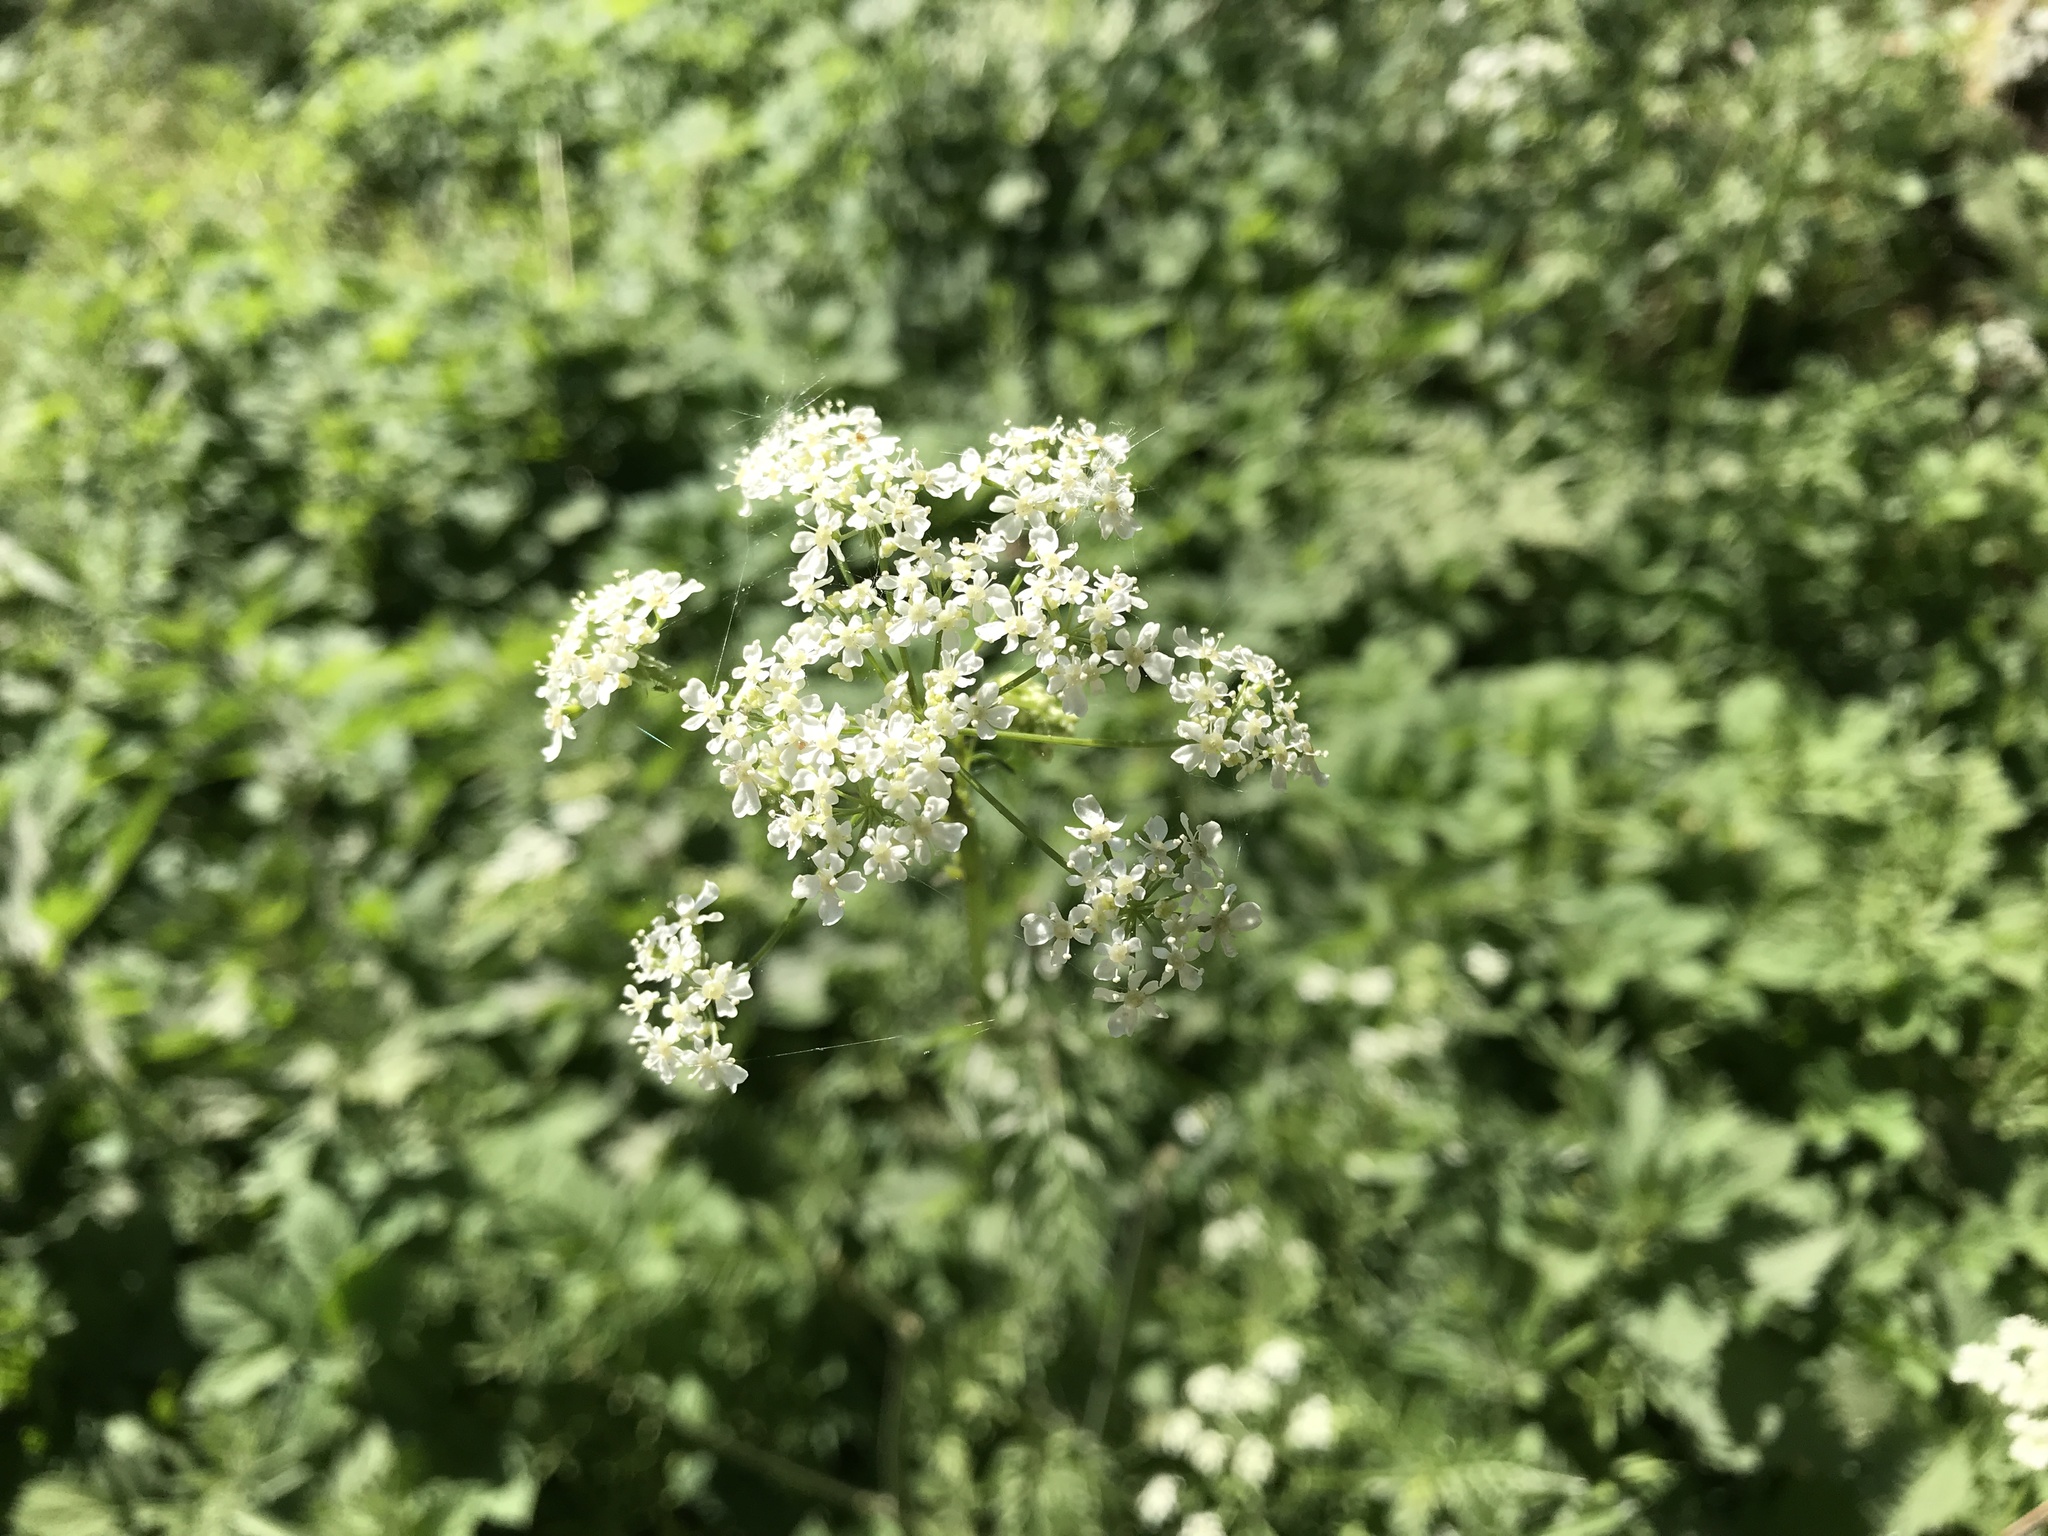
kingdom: Plantae
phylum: Tracheophyta
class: Magnoliopsida
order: Apiales
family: Apiaceae
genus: Anthriscus
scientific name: Anthriscus sylvestris
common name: Cow parsley
